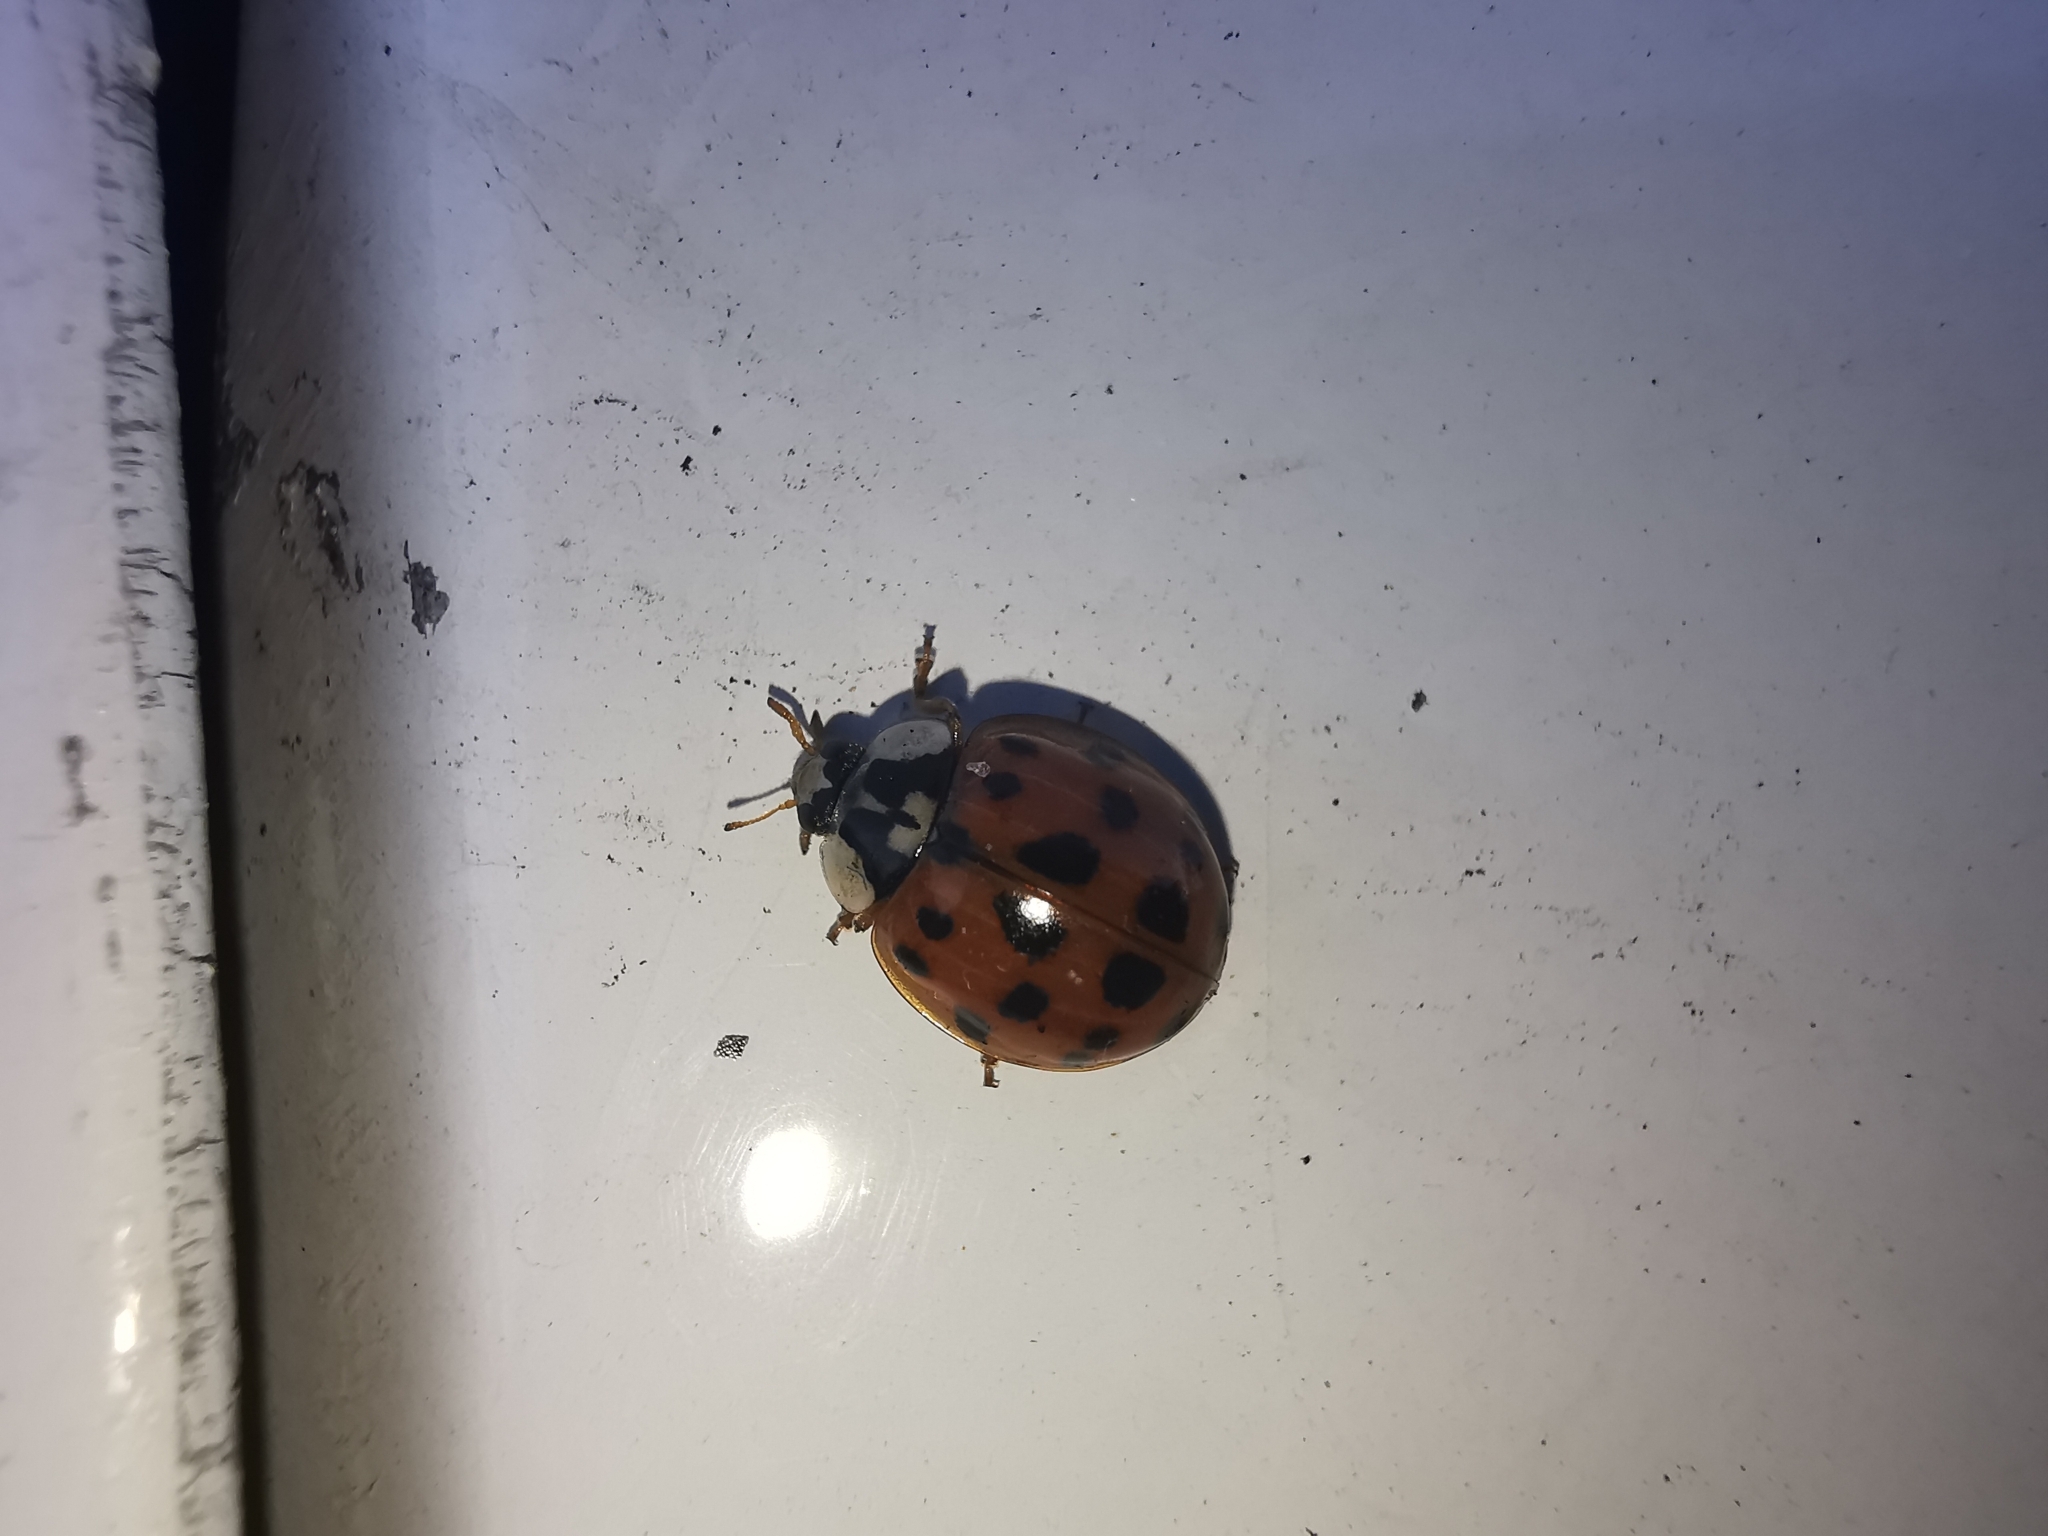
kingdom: Animalia
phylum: Arthropoda
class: Insecta
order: Coleoptera
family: Coccinellidae
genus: Harmonia
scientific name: Harmonia axyridis
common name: Harlequin ladybird
